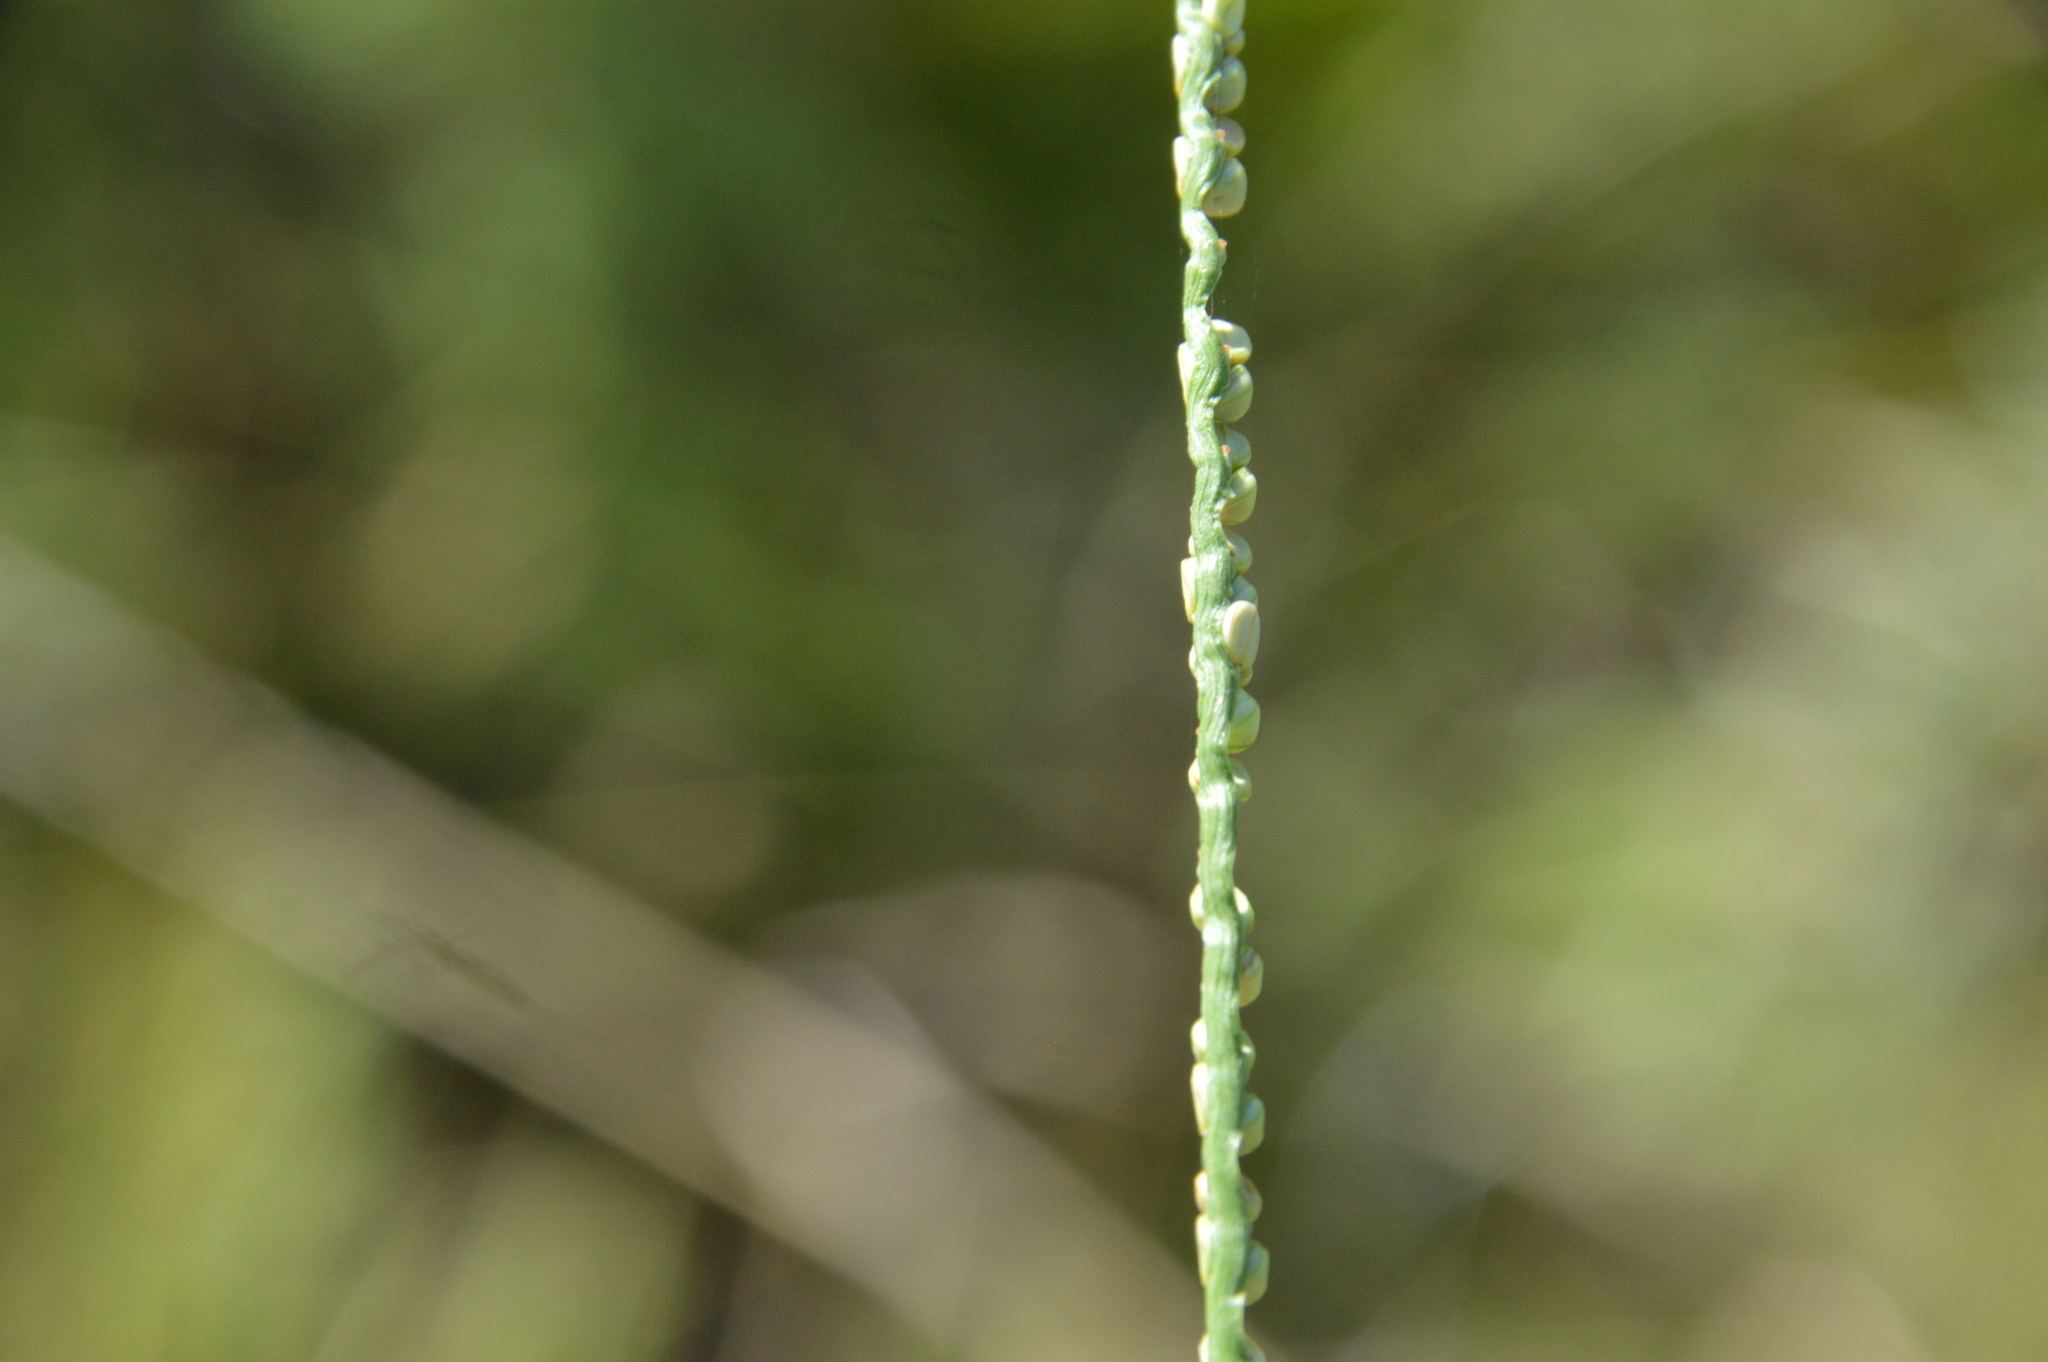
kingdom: Plantae
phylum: Tracheophyta
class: Liliopsida
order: Poales
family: Poaceae
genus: Paspalum
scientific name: Paspalum setaceum
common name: Slender paspalum
